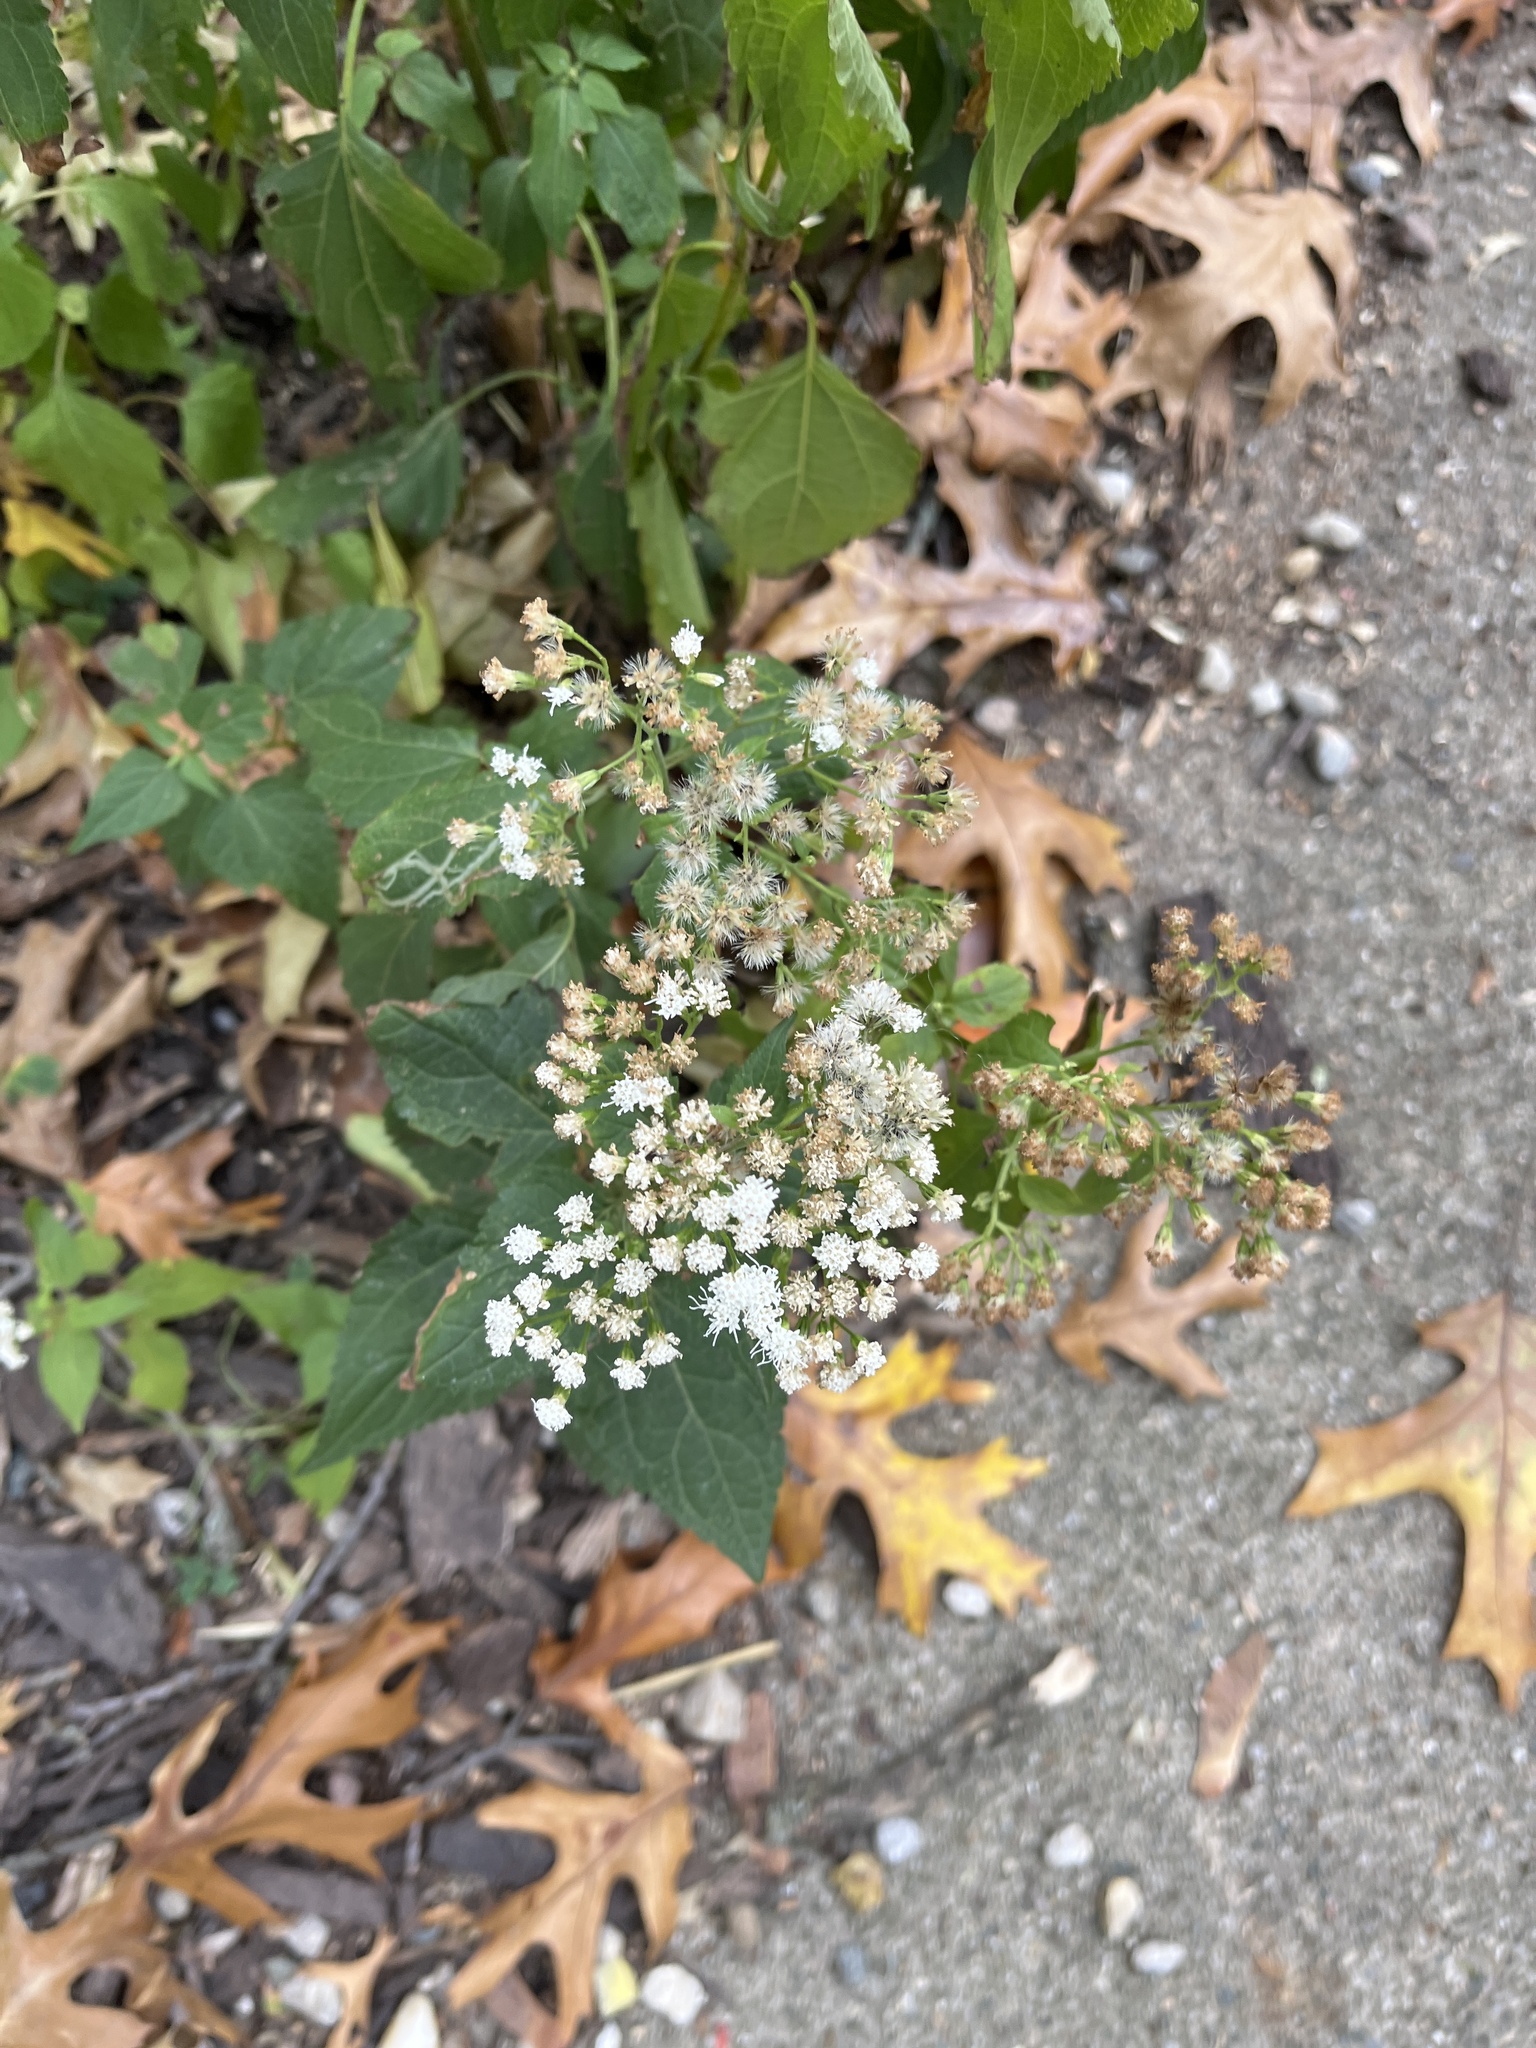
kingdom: Plantae
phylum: Tracheophyta
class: Magnoliopsida
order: Asterales
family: Asteraceae
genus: Ageratina
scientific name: Ageratina altissima
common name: White snakeroot
